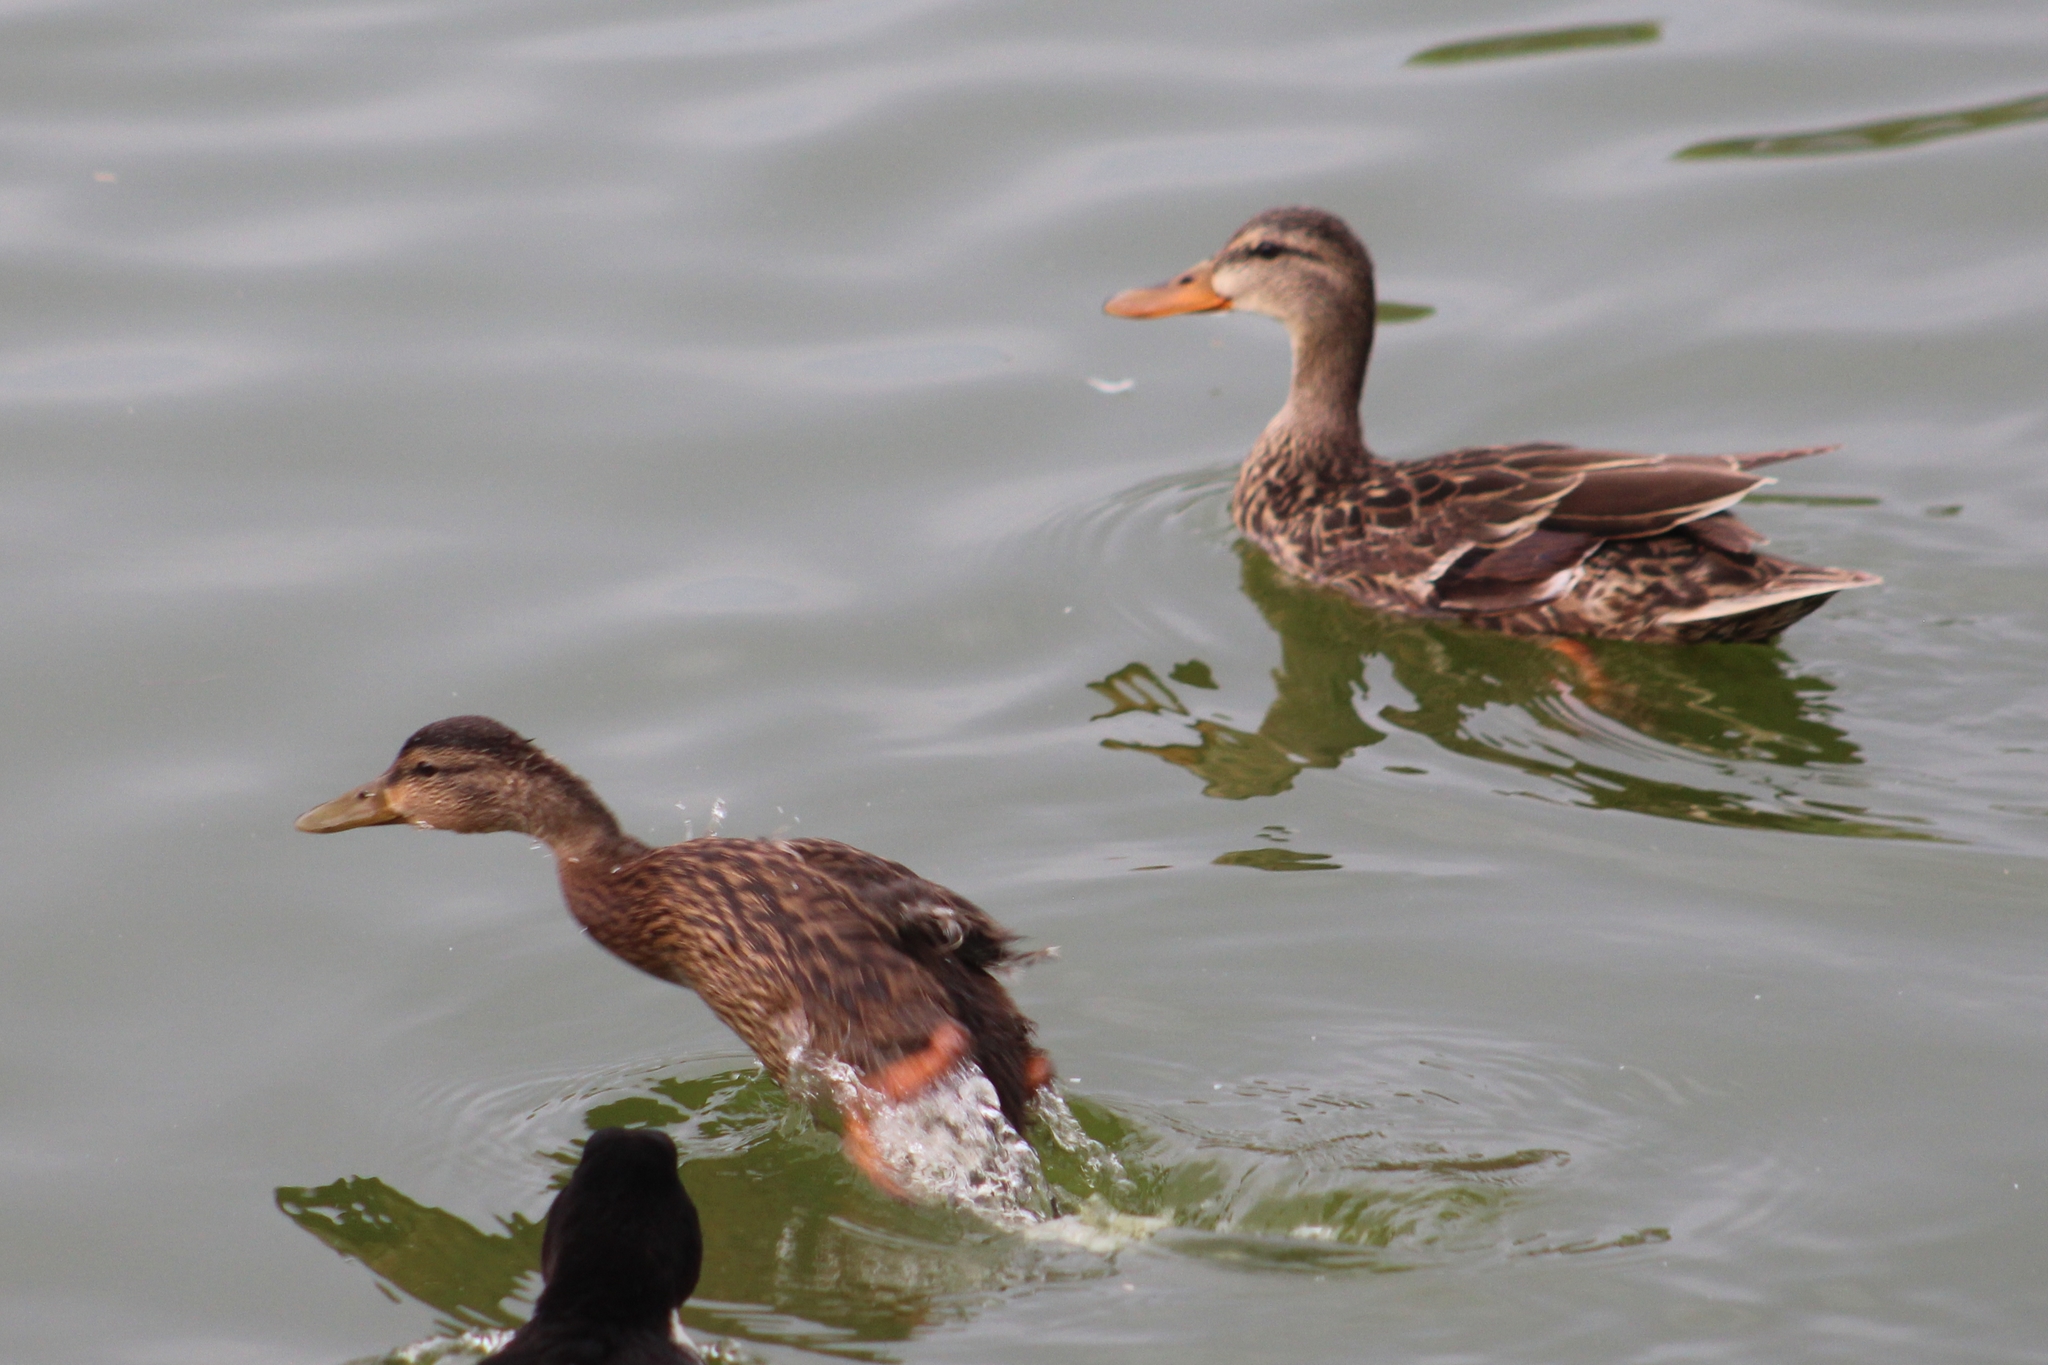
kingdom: Animalia
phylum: Chordata
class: Aves
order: Anseriformes
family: Anatidae
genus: Anas
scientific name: Anas diazi
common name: Mexican duck
